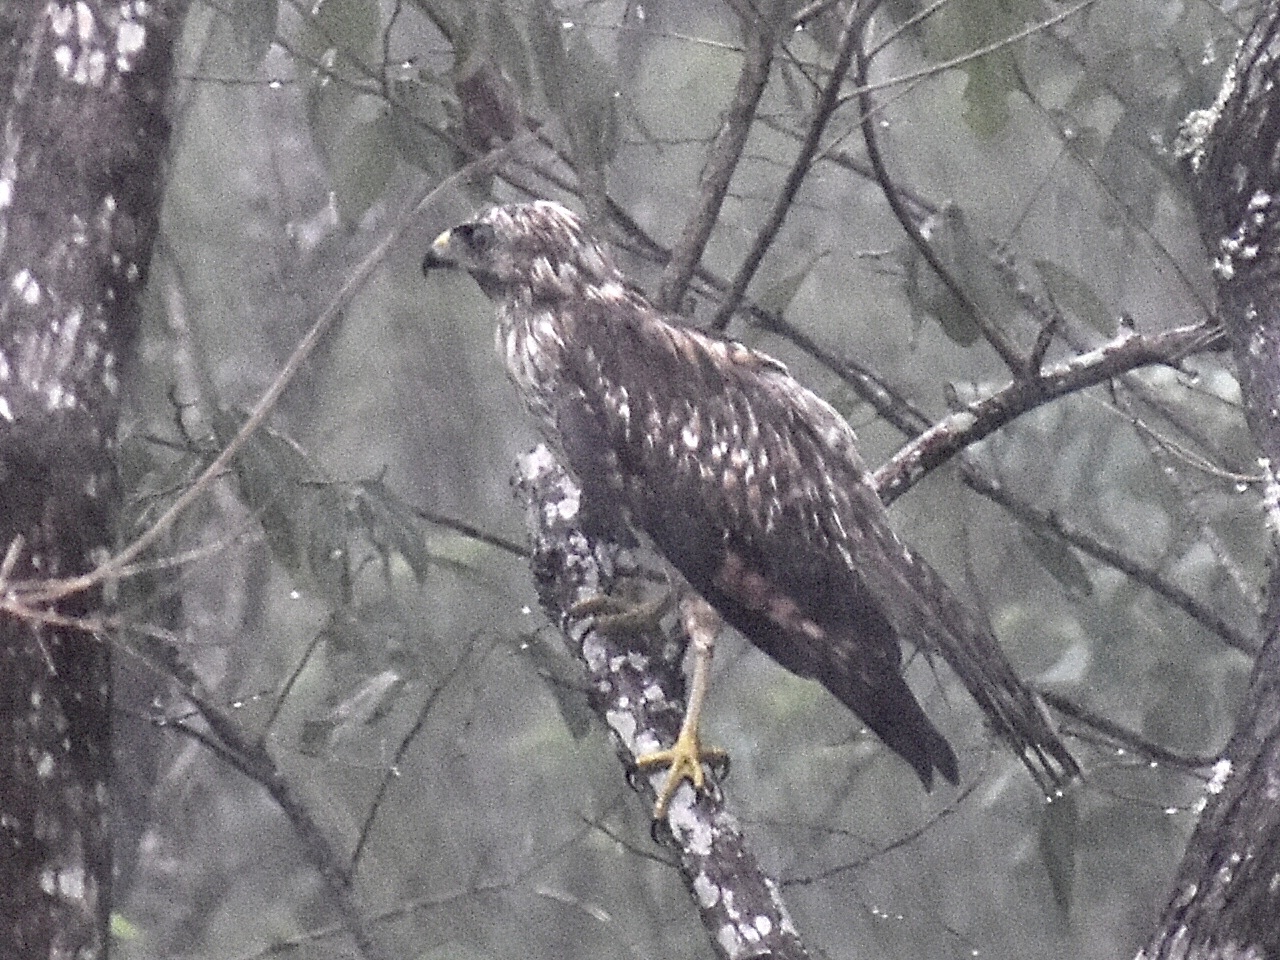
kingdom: Animalia
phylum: Chordata
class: Aves
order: Accipitriformes
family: Accipitridae
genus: Buteo
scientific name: Buteo lineatus
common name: Red-shouldered hawk
